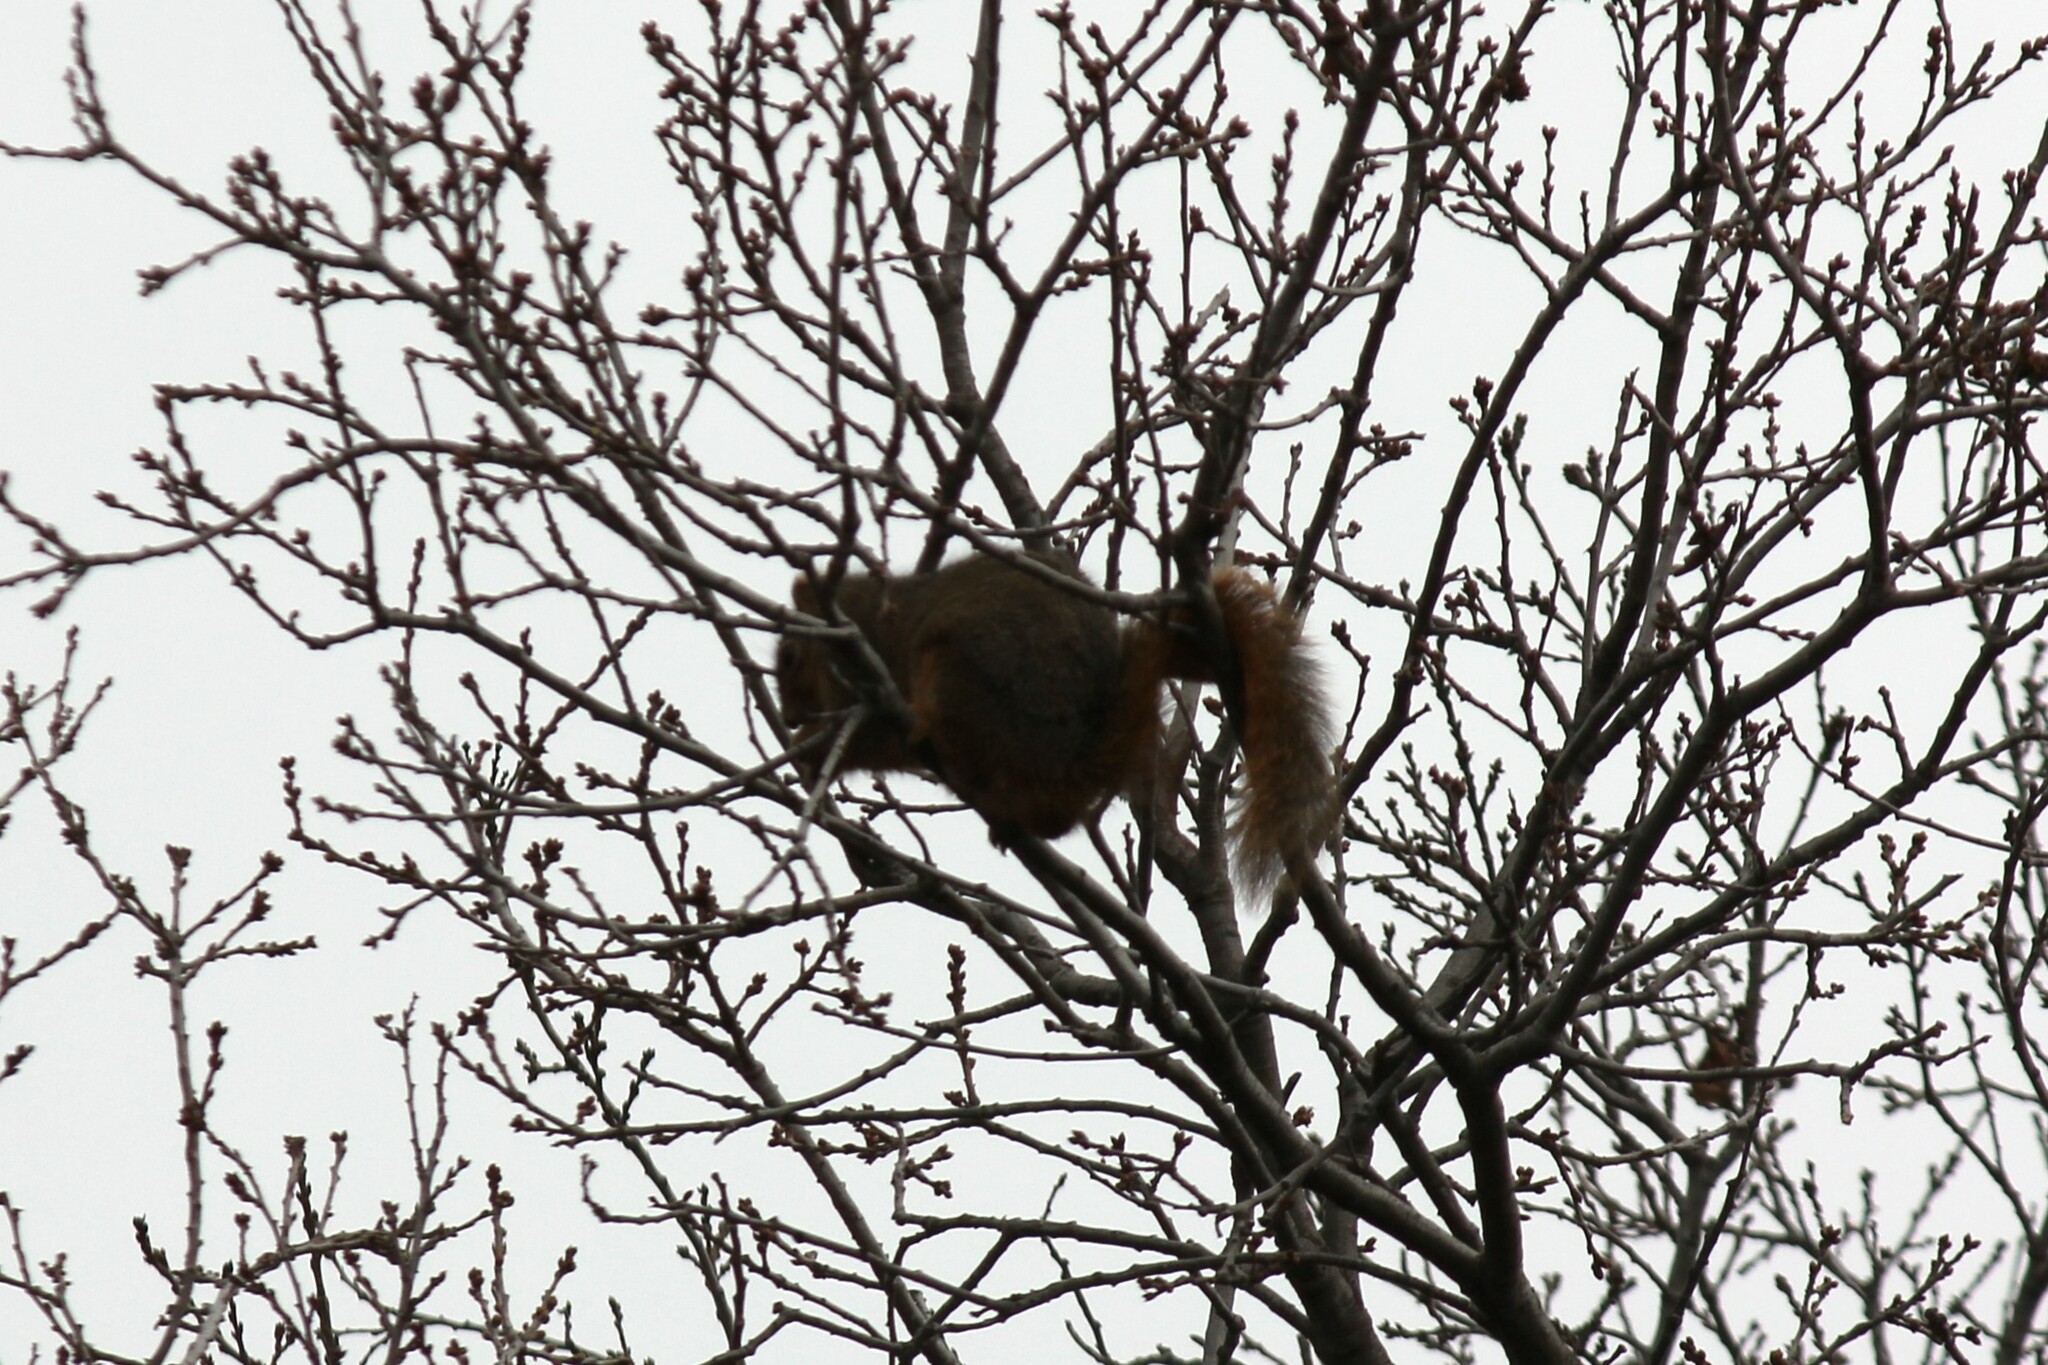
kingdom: Animalia
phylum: Chordata
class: Mammalia
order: Rodentia
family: Sciuridae
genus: Sciurus
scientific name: Sciurus niger
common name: Fox squirrel
